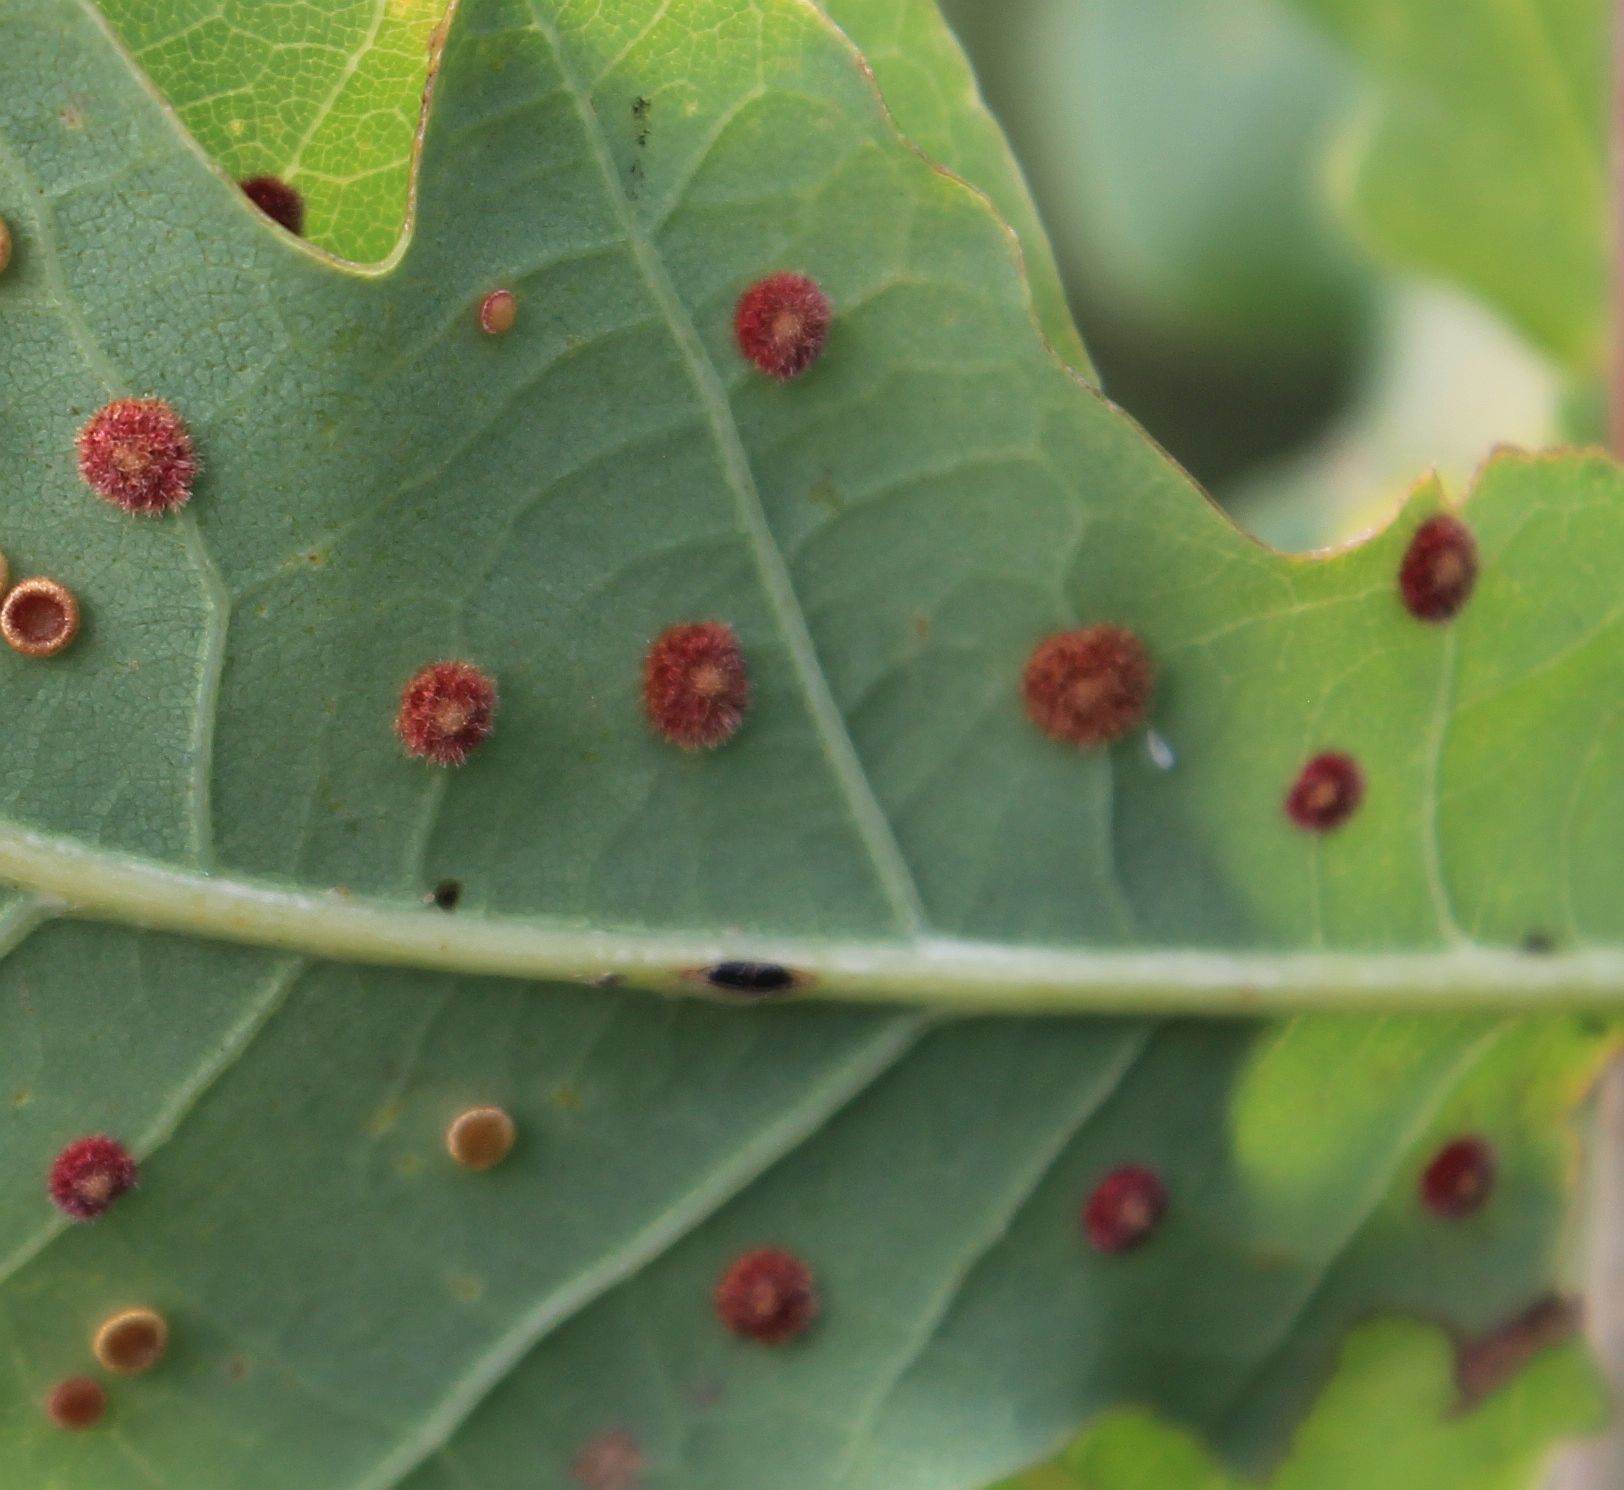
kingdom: Animalia
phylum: Arthropoda
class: Insecta
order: Hymenoptera
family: Cynipidae
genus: Neuroterus
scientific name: Neuroterus quercusbaccarum
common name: Common spangle gall
